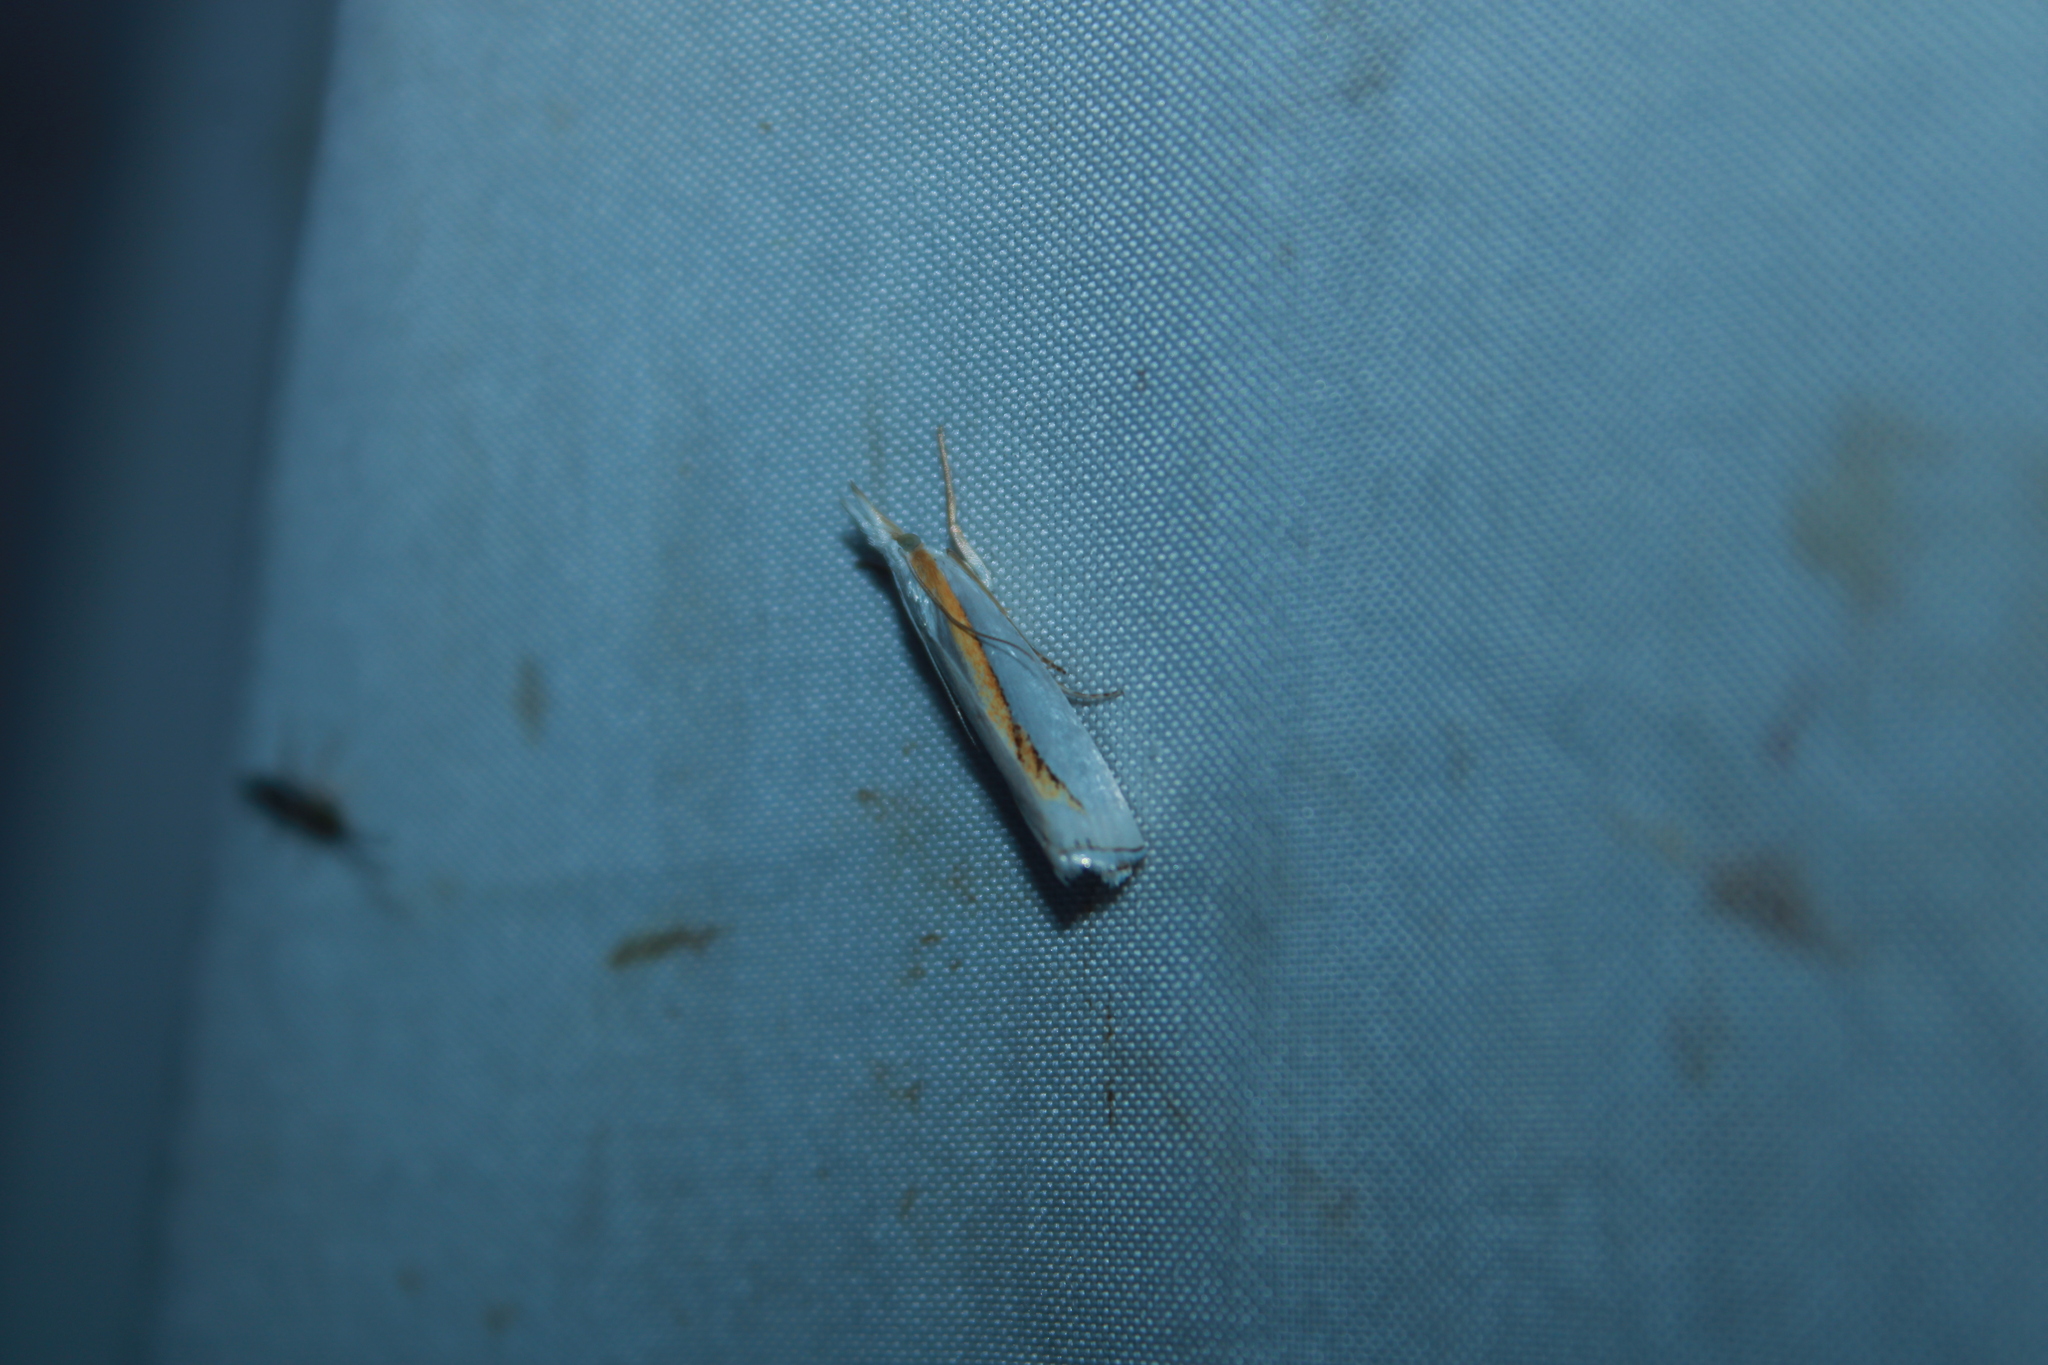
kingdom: Animalia
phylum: Arthropoda
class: Insecta
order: Lepidoptera
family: Crambidae
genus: Crambus
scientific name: Crambus girardellus
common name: Girard's grass-veneer
